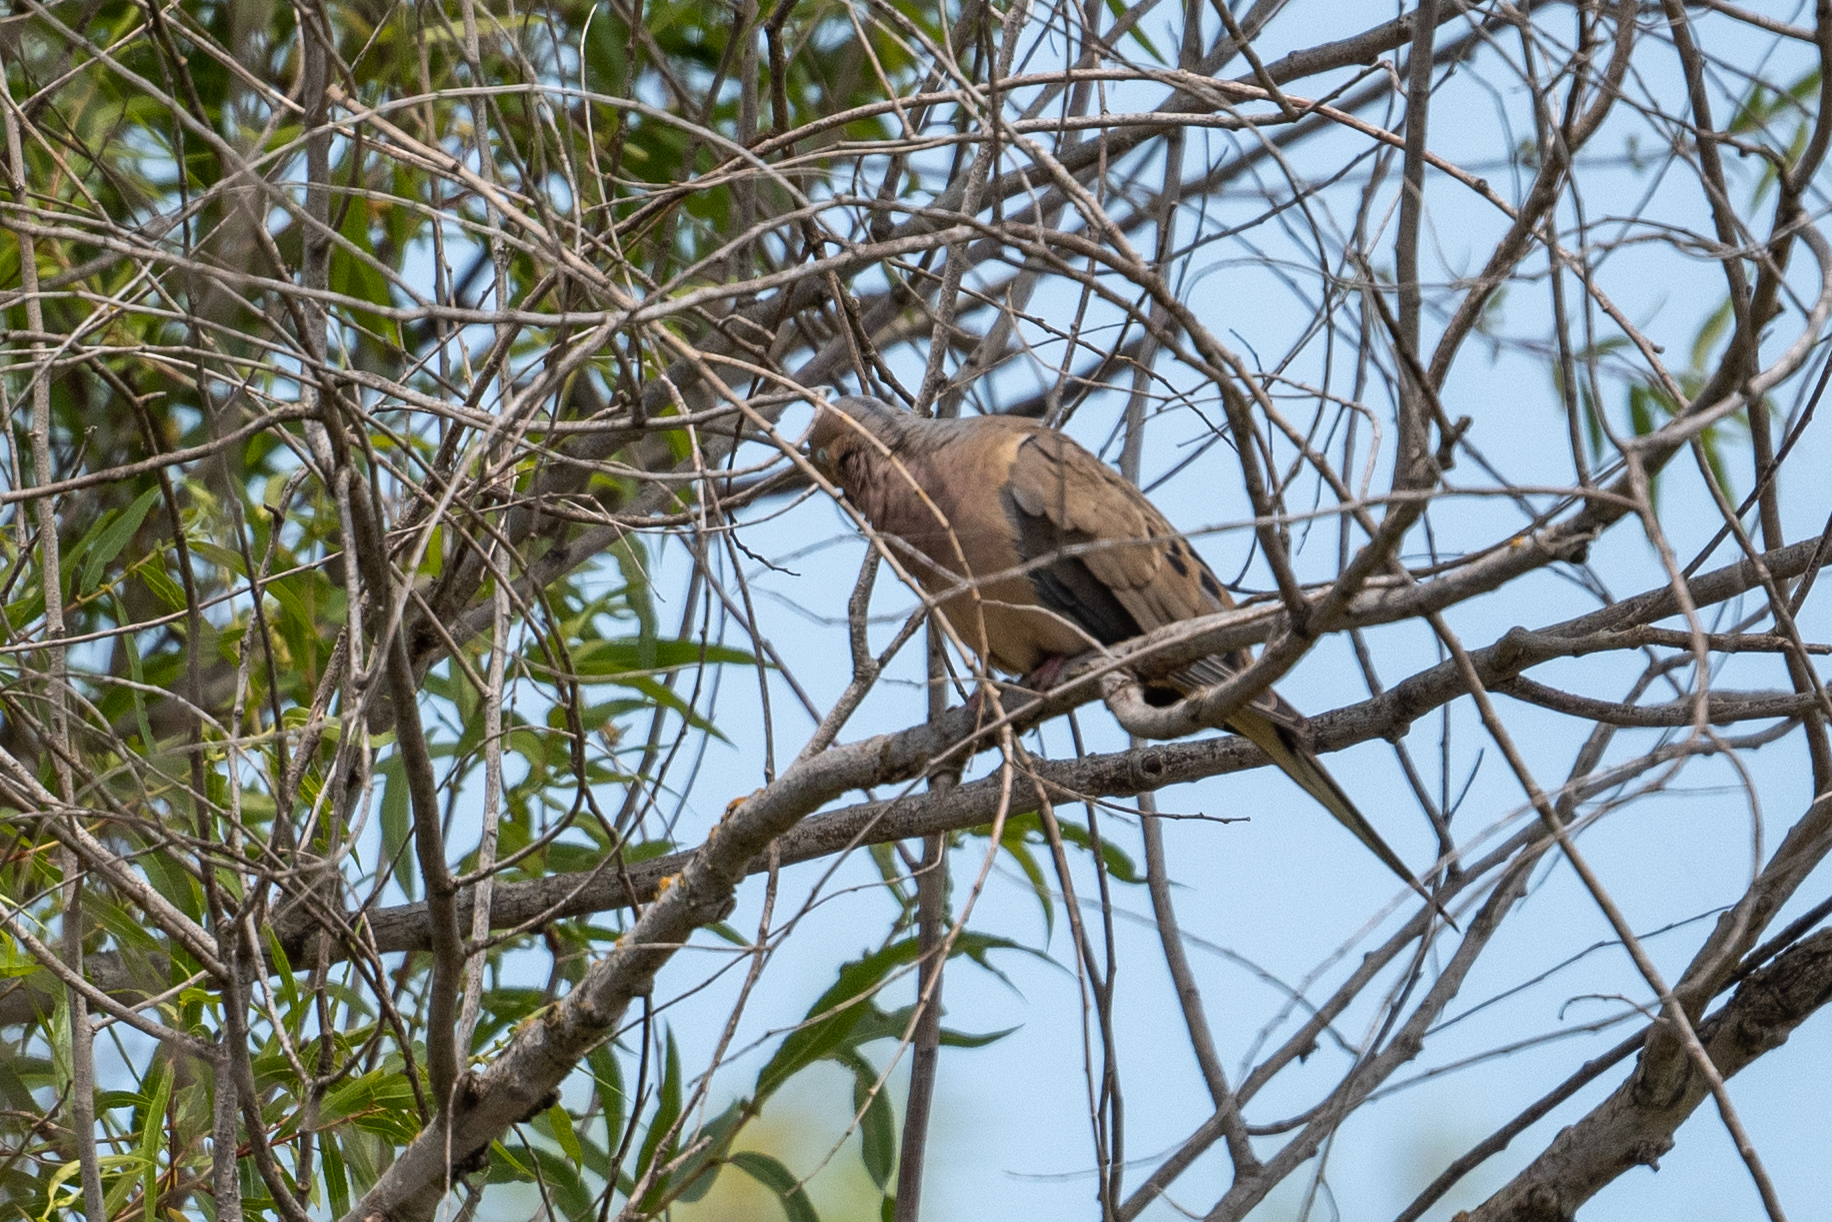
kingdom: Animalia
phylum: Chordata
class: Aves
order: Columbiformes
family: Columbidae
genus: Zenaida
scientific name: Zenaida macroura
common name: Mourning dove
